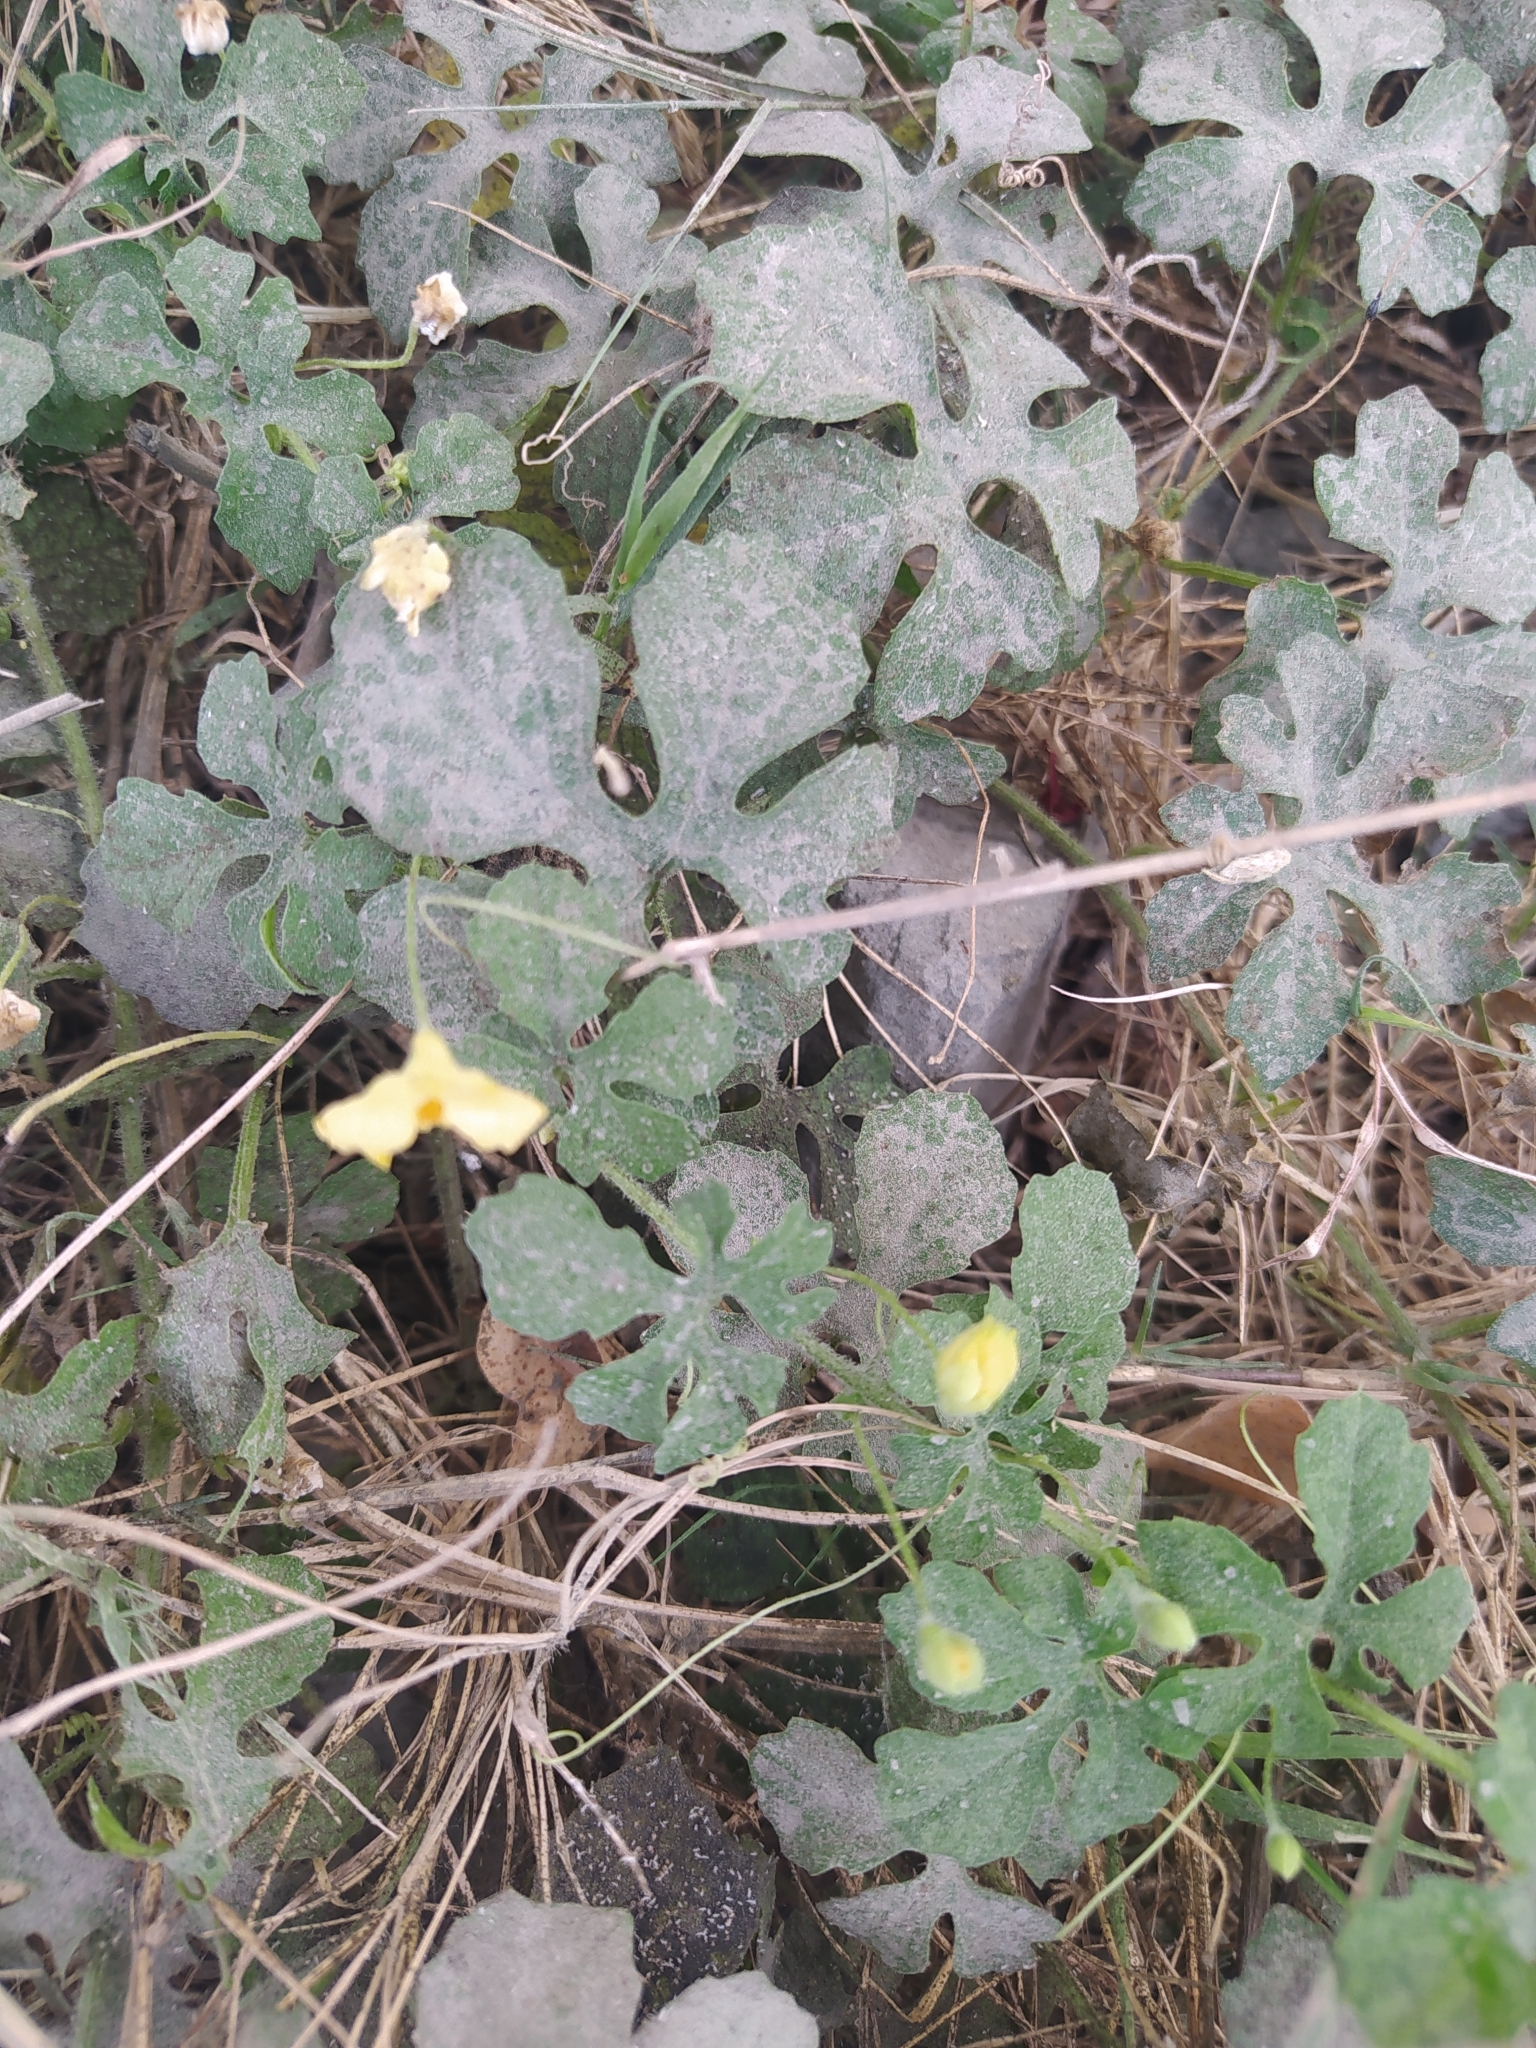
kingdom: Plantae
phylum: Tracheophyta
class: Magnoliopsida
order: Cucurbitales
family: Cucurbitaceae
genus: Momordica
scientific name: Momordica charantia
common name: Balsampear
